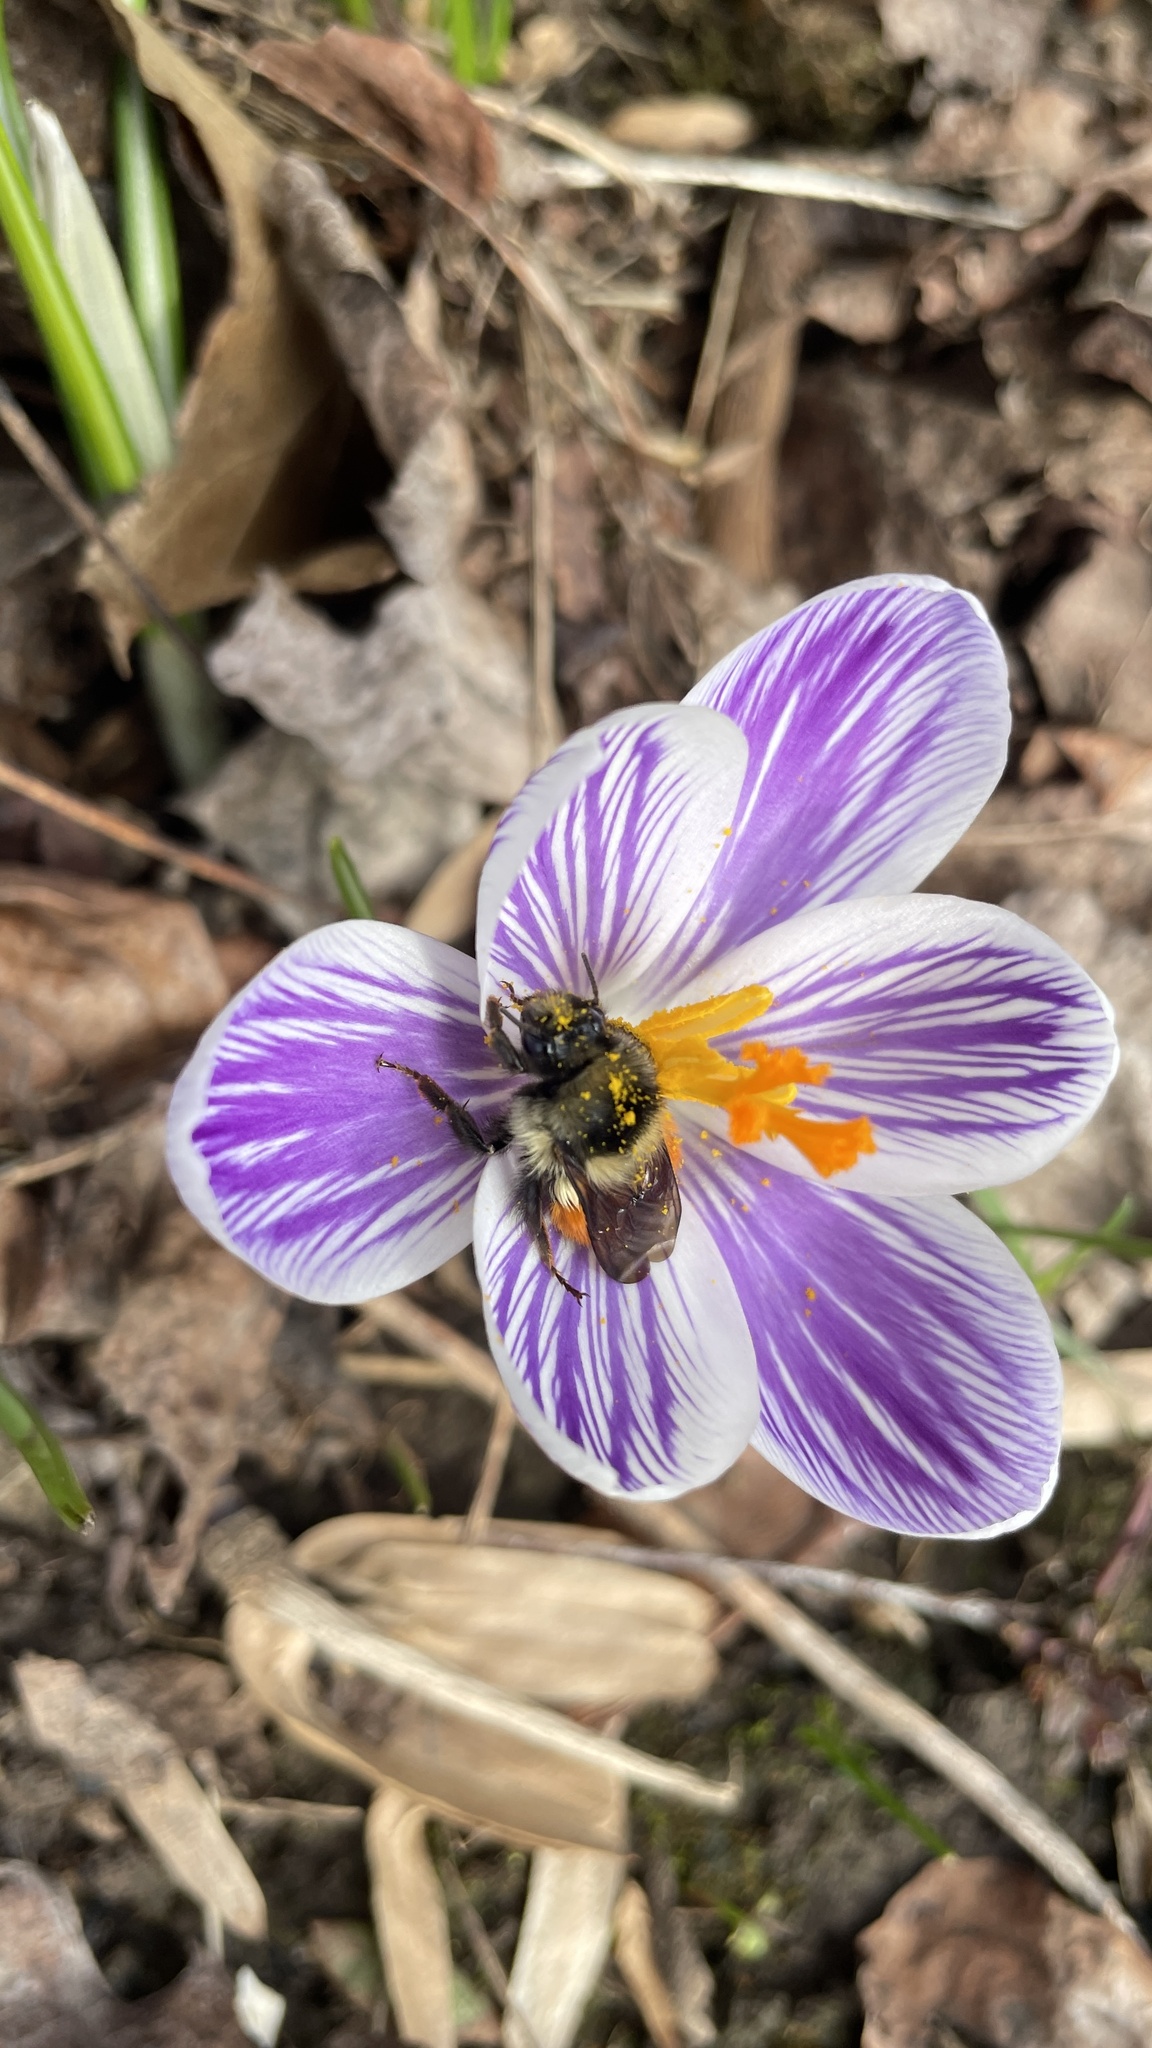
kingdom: Animalia
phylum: Arthropoda
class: Insecta
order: Hymenoptera
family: Apidae
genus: Bombus
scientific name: Bombus melanopygus
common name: Black tail bumble bee
